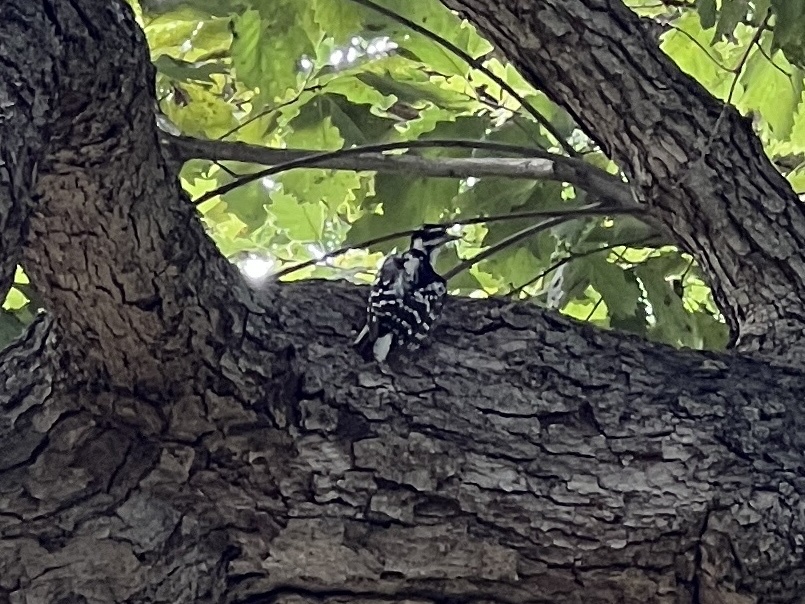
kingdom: Animalia
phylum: Chordata
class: Aves
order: Piciformes
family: Picidae
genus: Dryobates
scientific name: Dryobates pubescens
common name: Downy woodpecker
